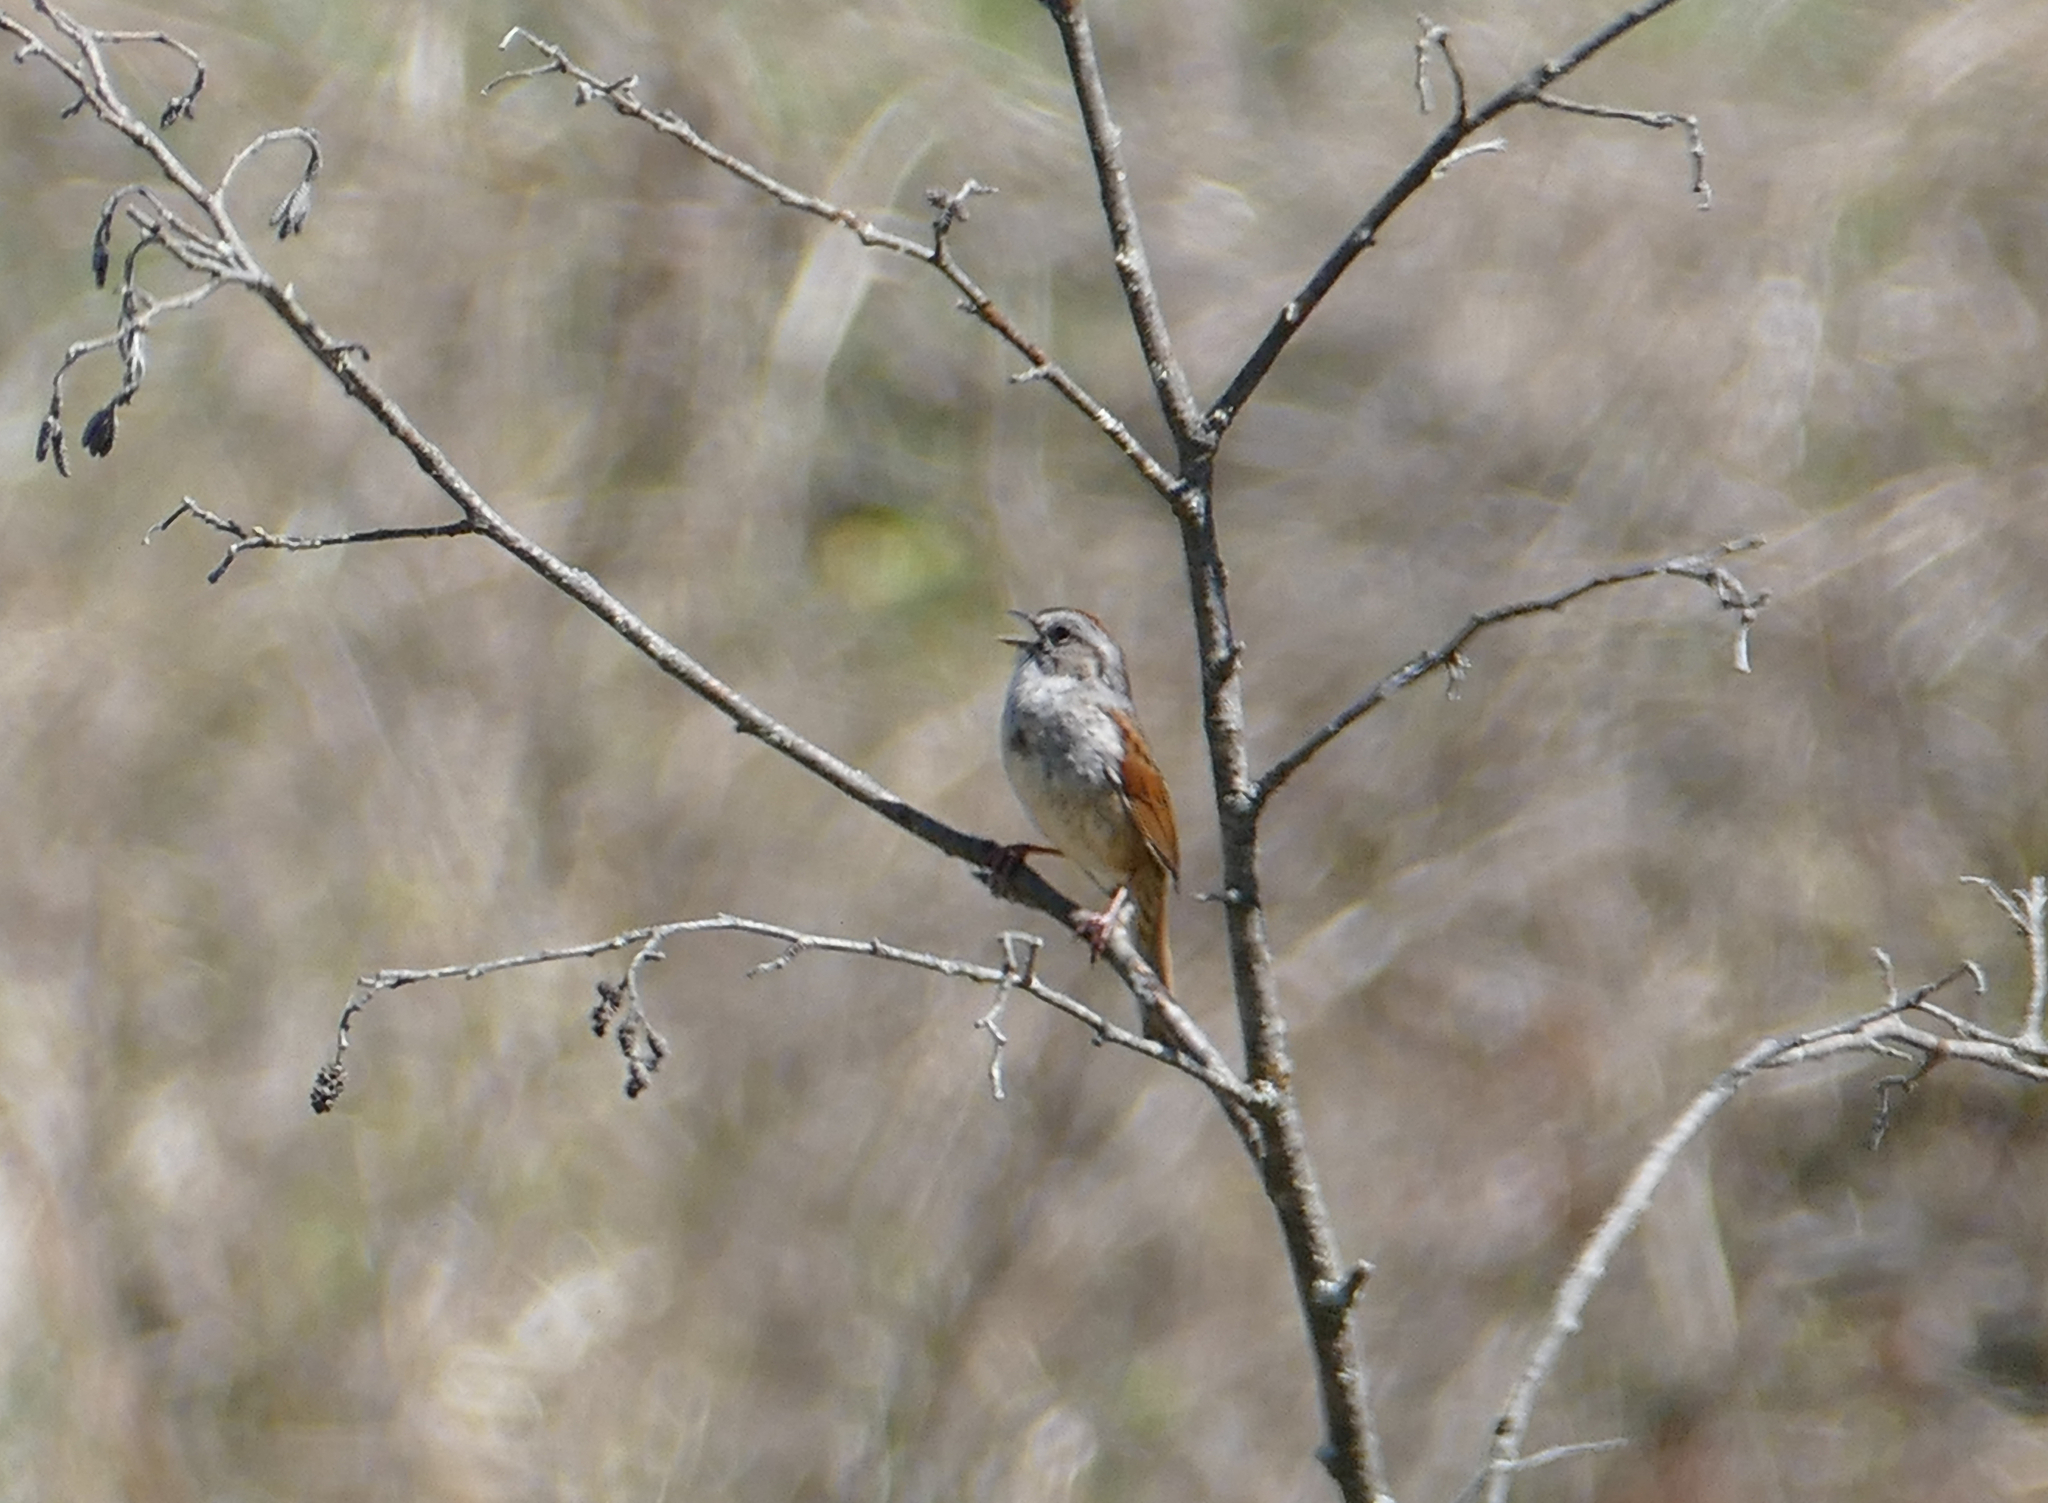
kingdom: Animalia
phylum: Chordata
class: Aves
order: Passeriformes
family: Passerellidae
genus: Melospiza
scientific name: Melospiza georgiana
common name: Swamp sparrow
